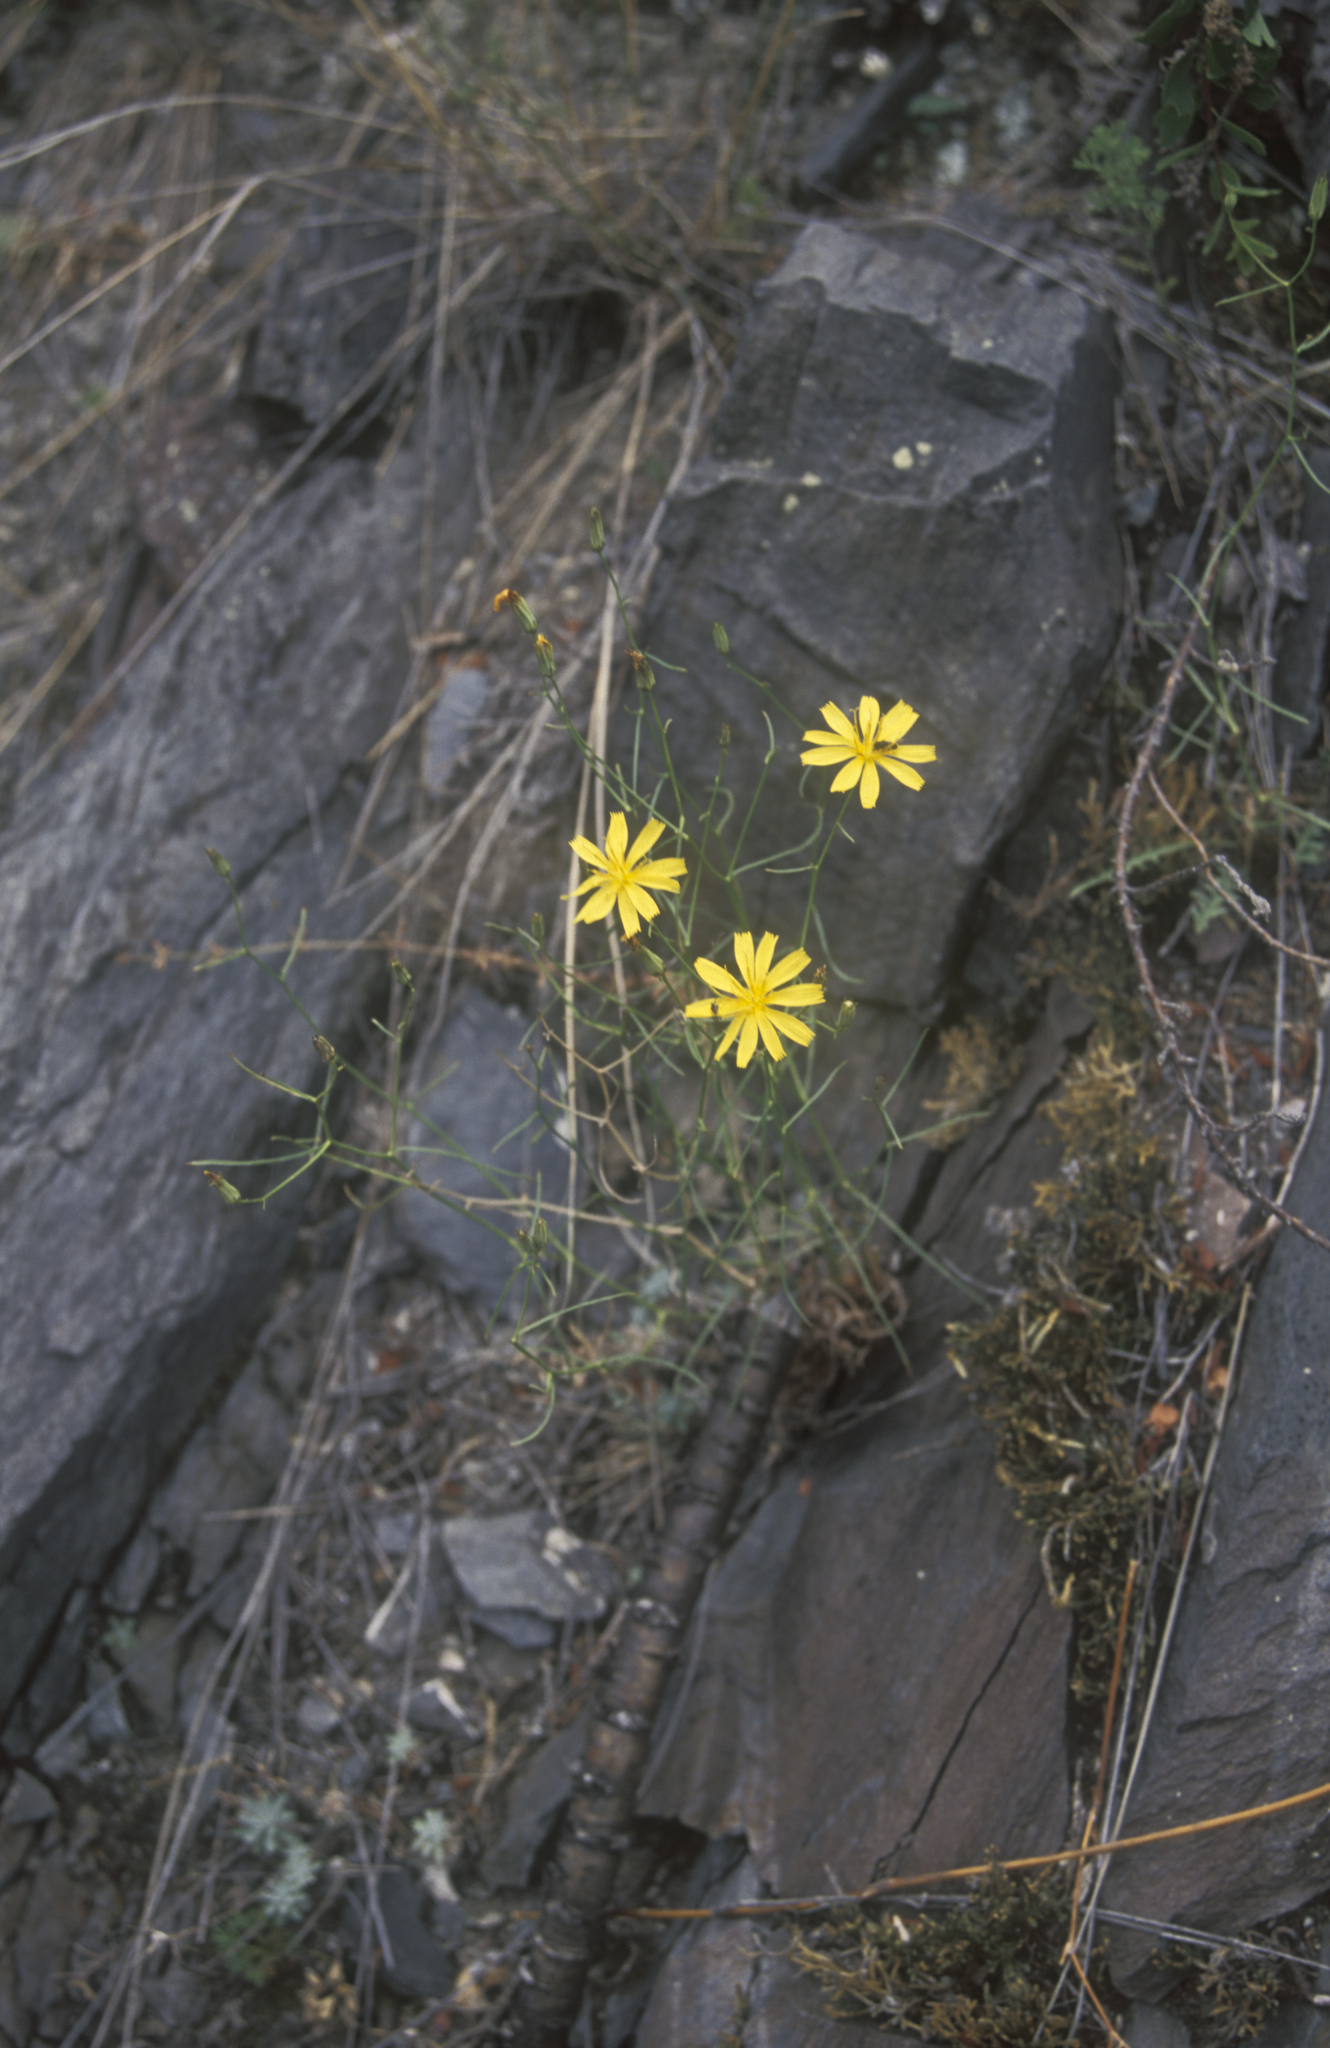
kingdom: Plantae
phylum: Tracheophyta
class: Magnoliopsida
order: Asterales
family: Asteraceae
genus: Crepidiastrum
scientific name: Crepidiastrum tenuifolium
